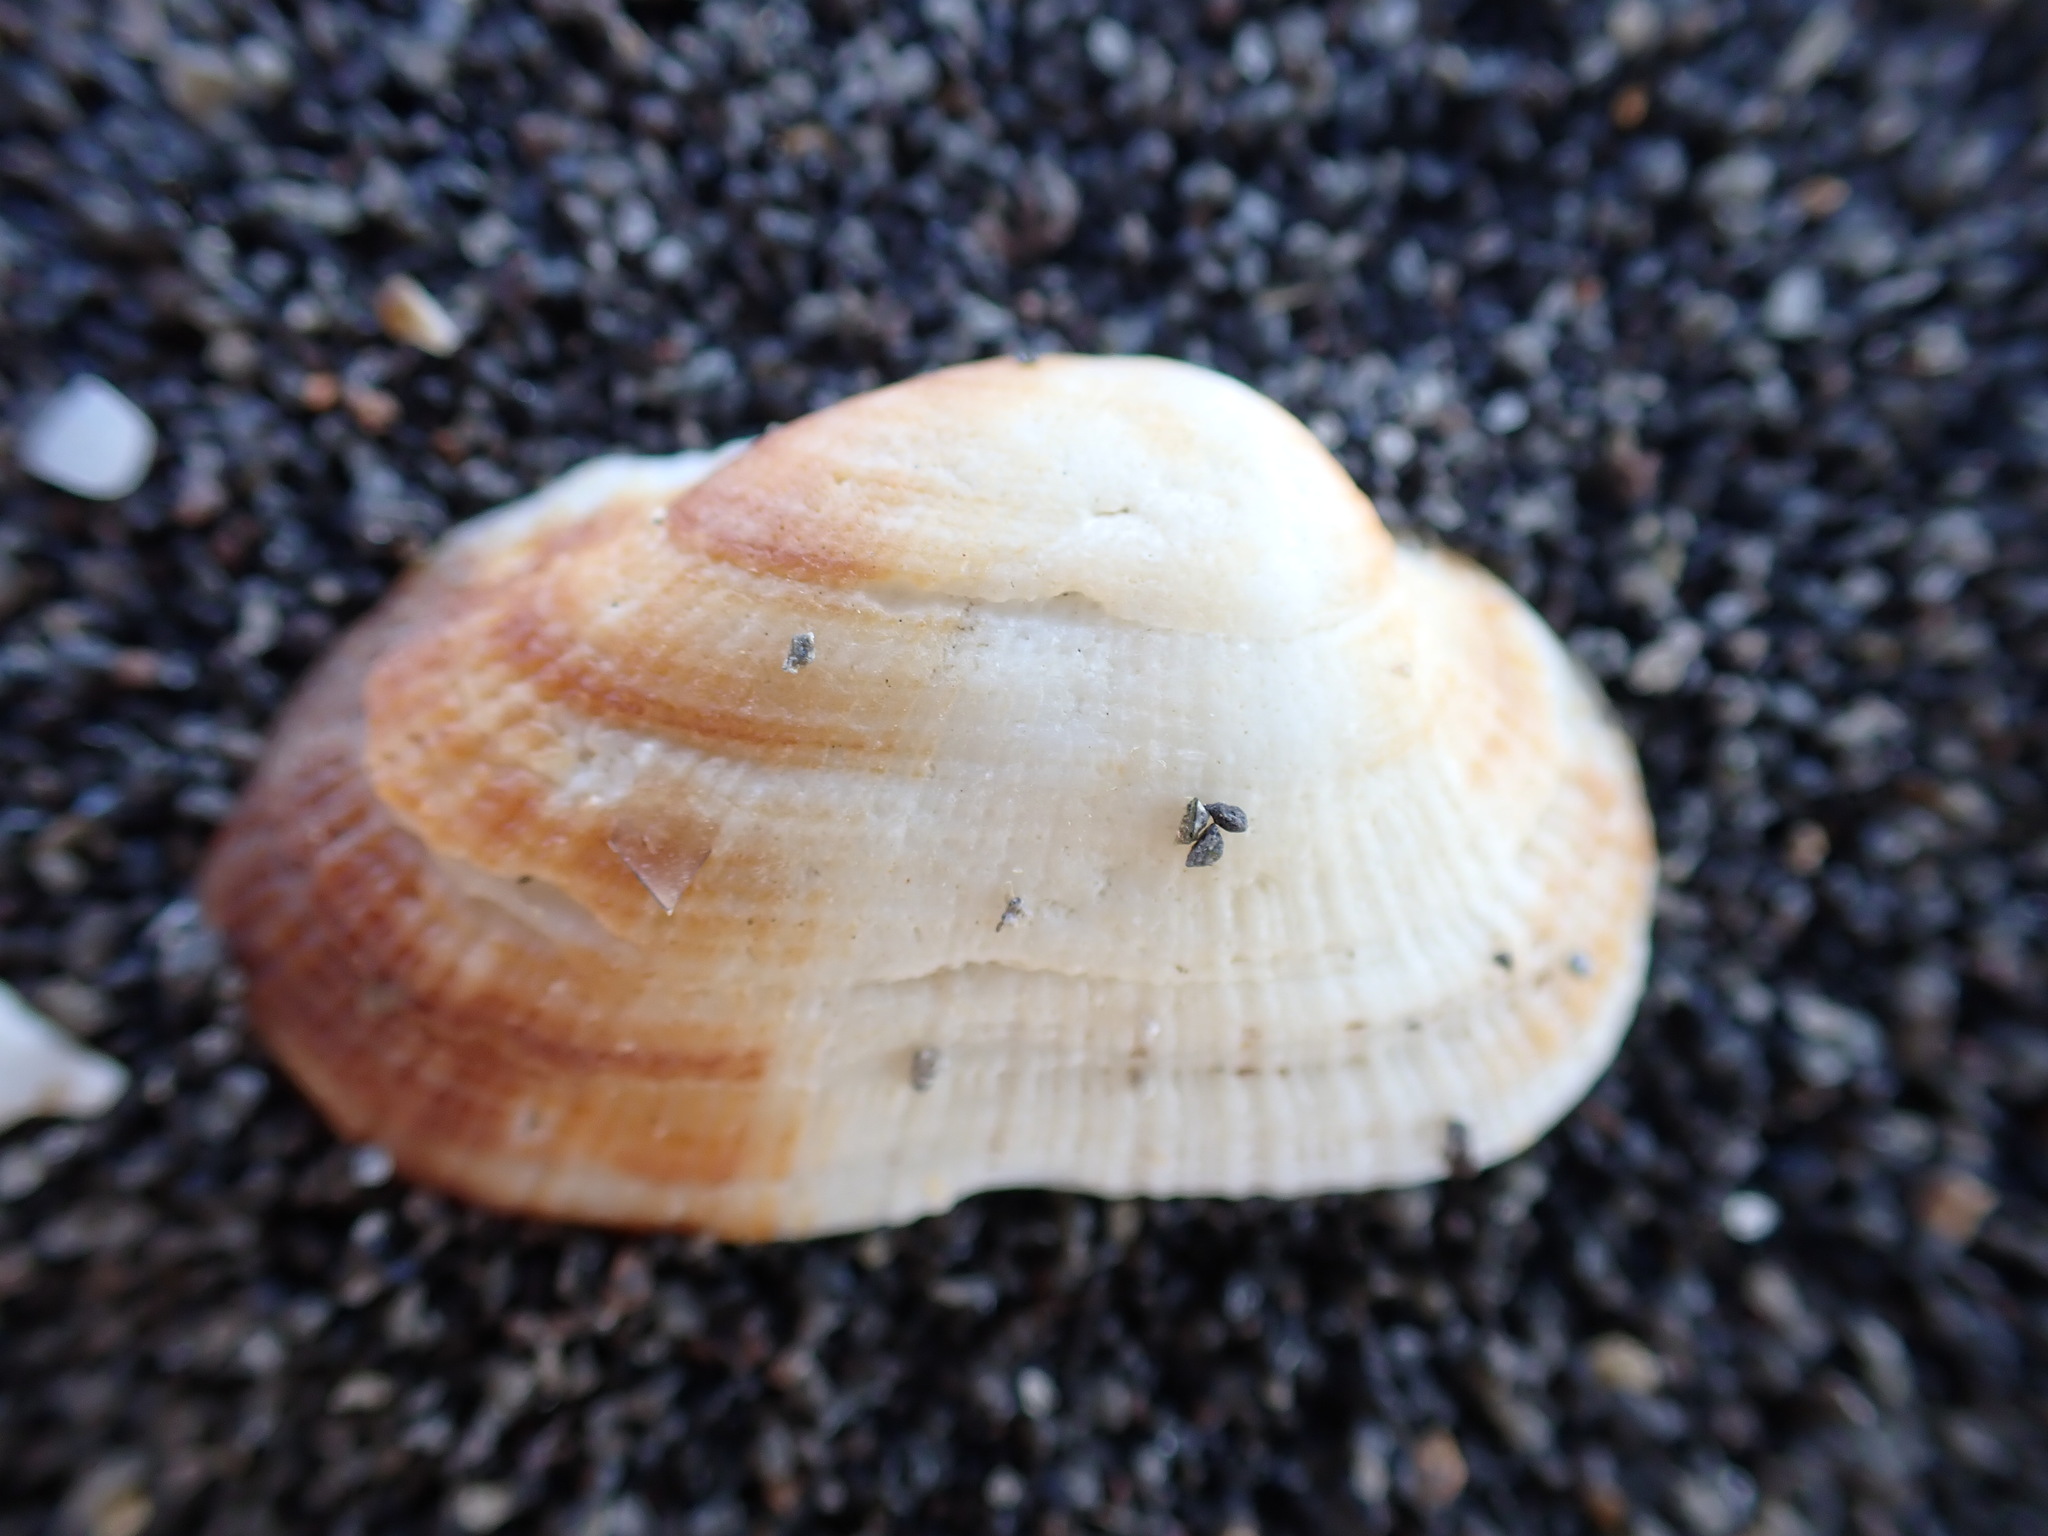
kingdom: Animalia
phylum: Mollusca
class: Bivalvia
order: Arcida
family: Arcidae
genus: Barbatia
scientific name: Barbatia novaezealandiae
